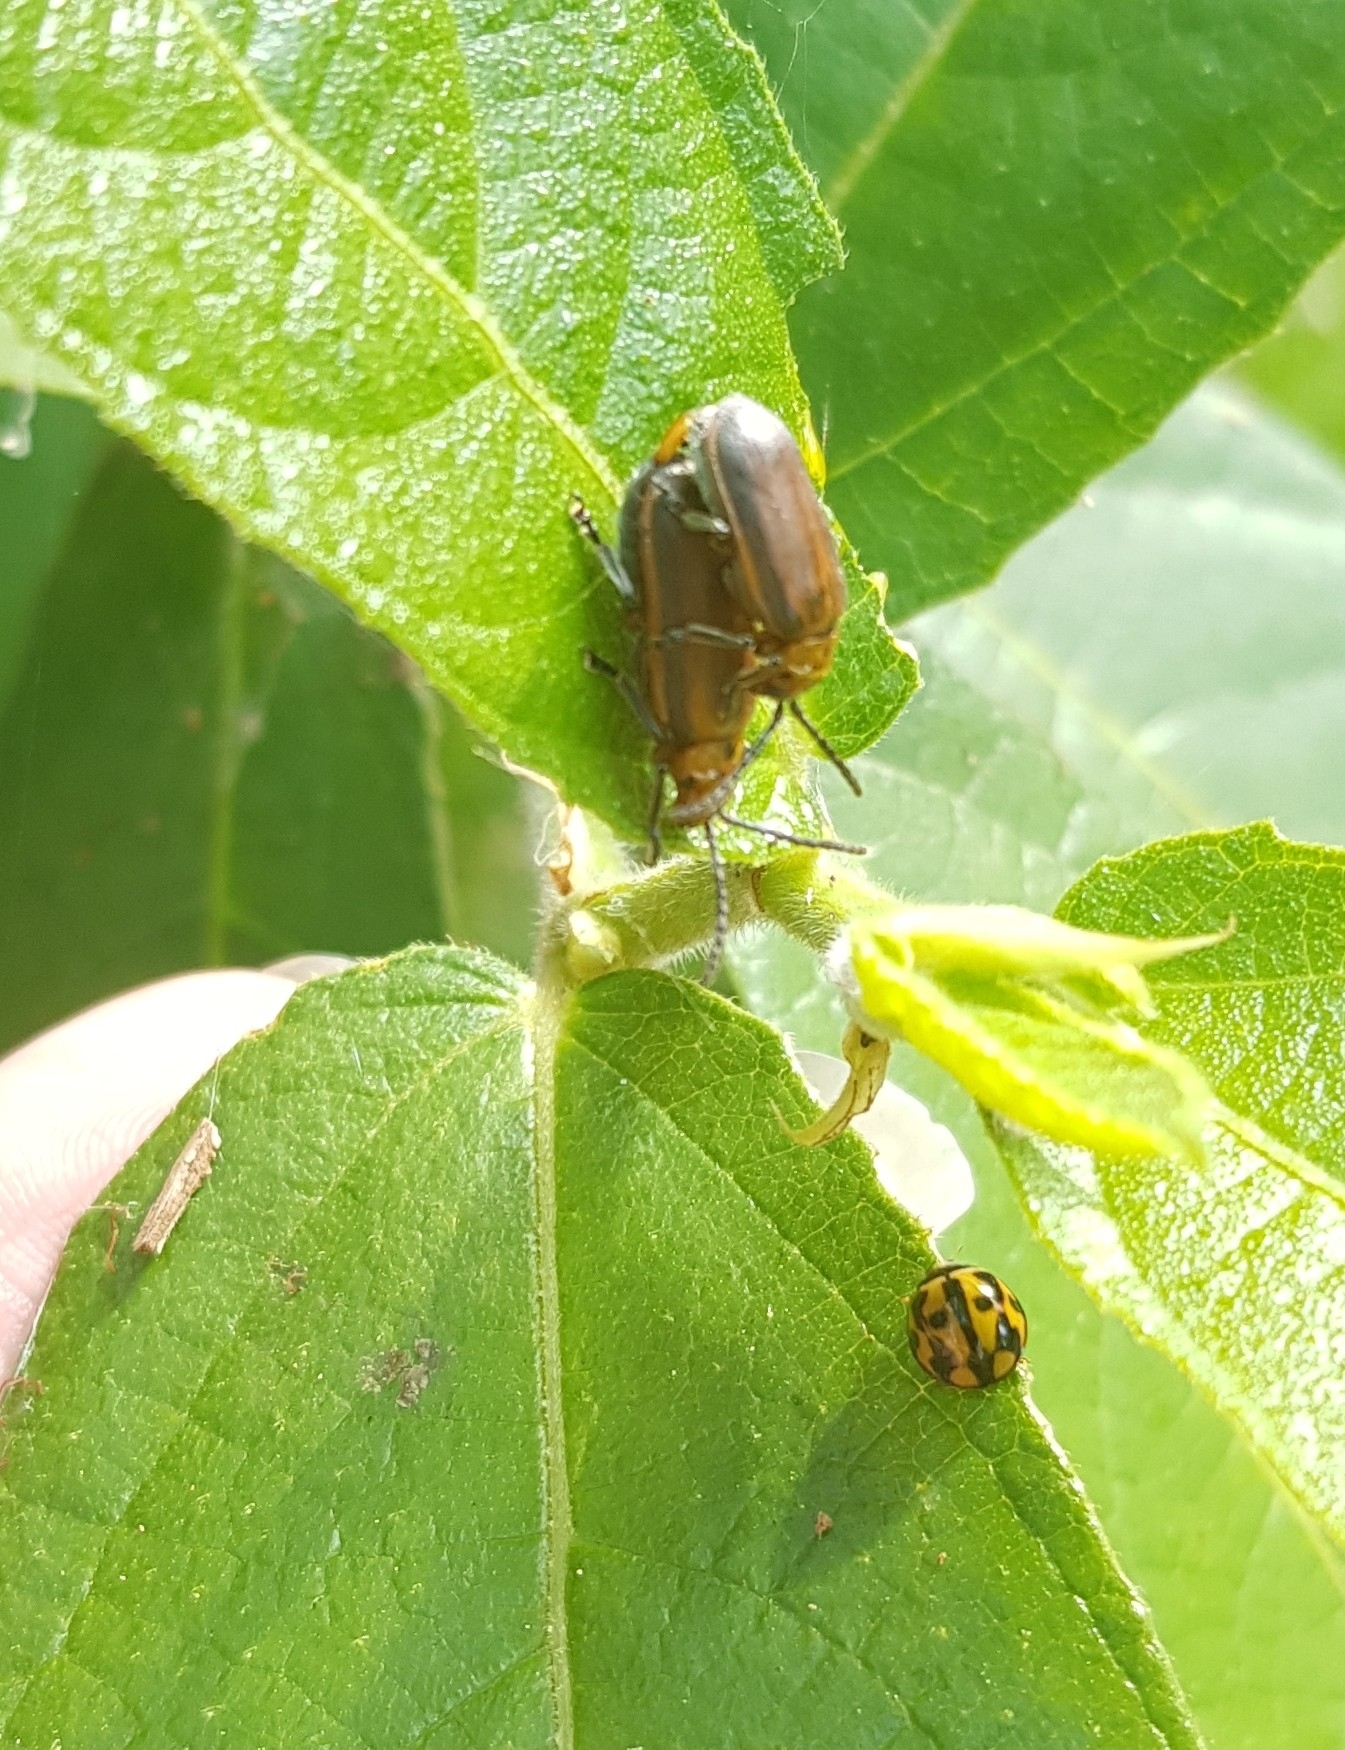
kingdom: Animalia
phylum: Arthropoda
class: Insecta
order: Coleoptera
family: Chrysomelidae
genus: Poneridia
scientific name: Poneridia semipullata
